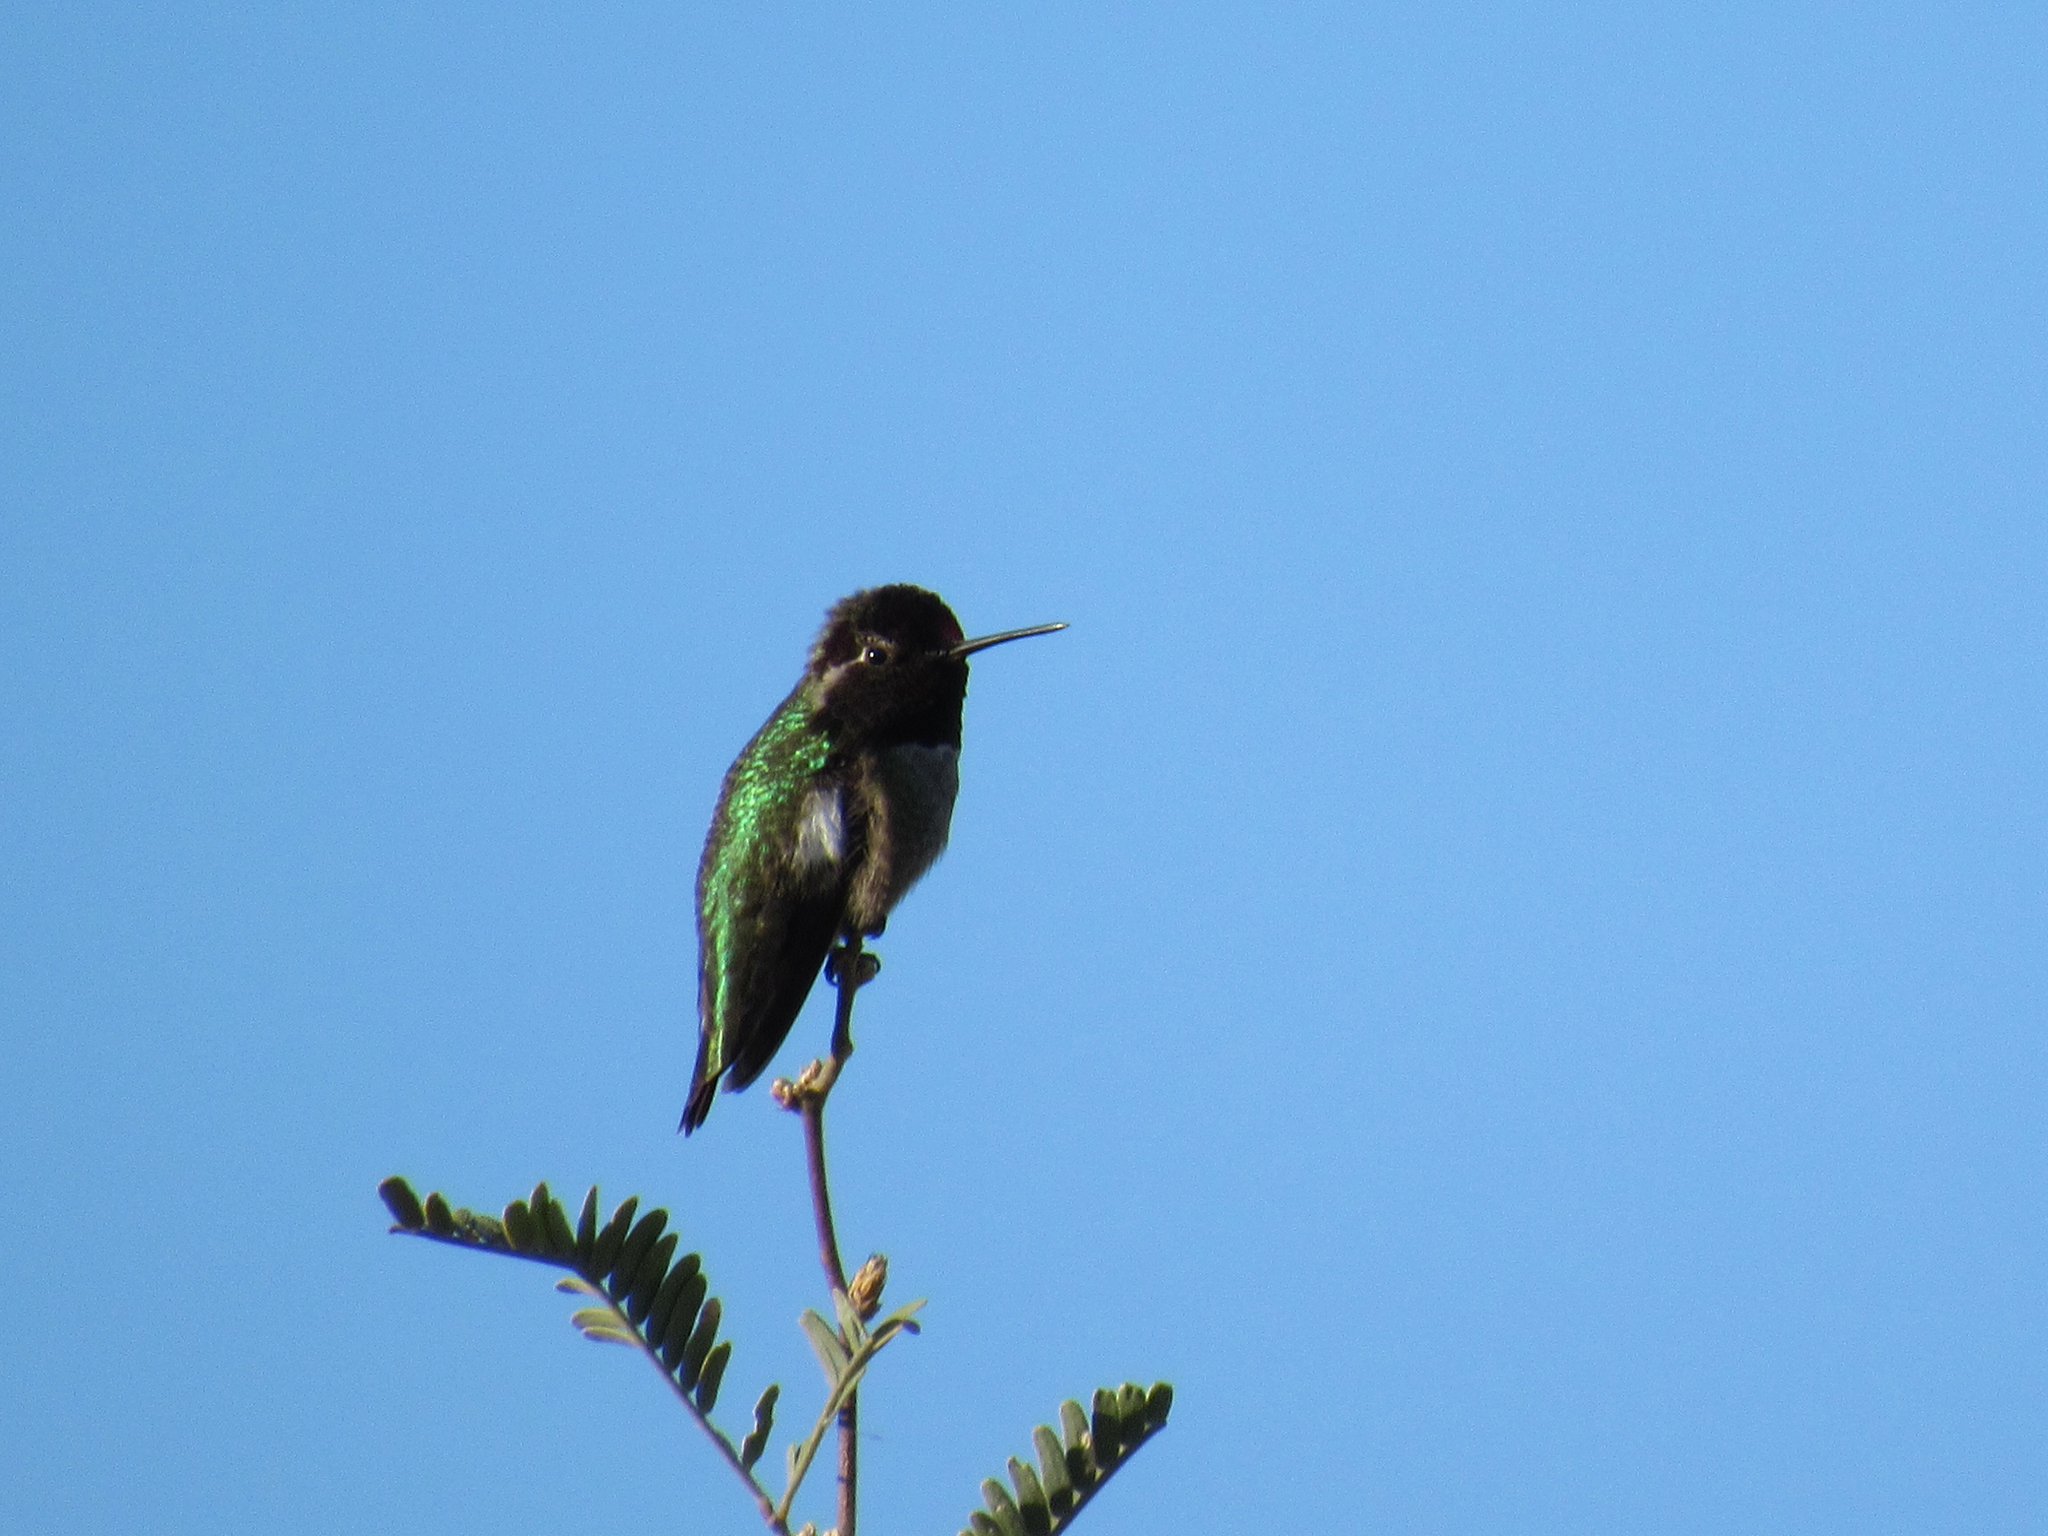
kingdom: Animalia
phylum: Chordata
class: Aves
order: Apodiformes
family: Trochilidae
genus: Calypte
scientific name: Calypte anna
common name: Anna's hummingbird
